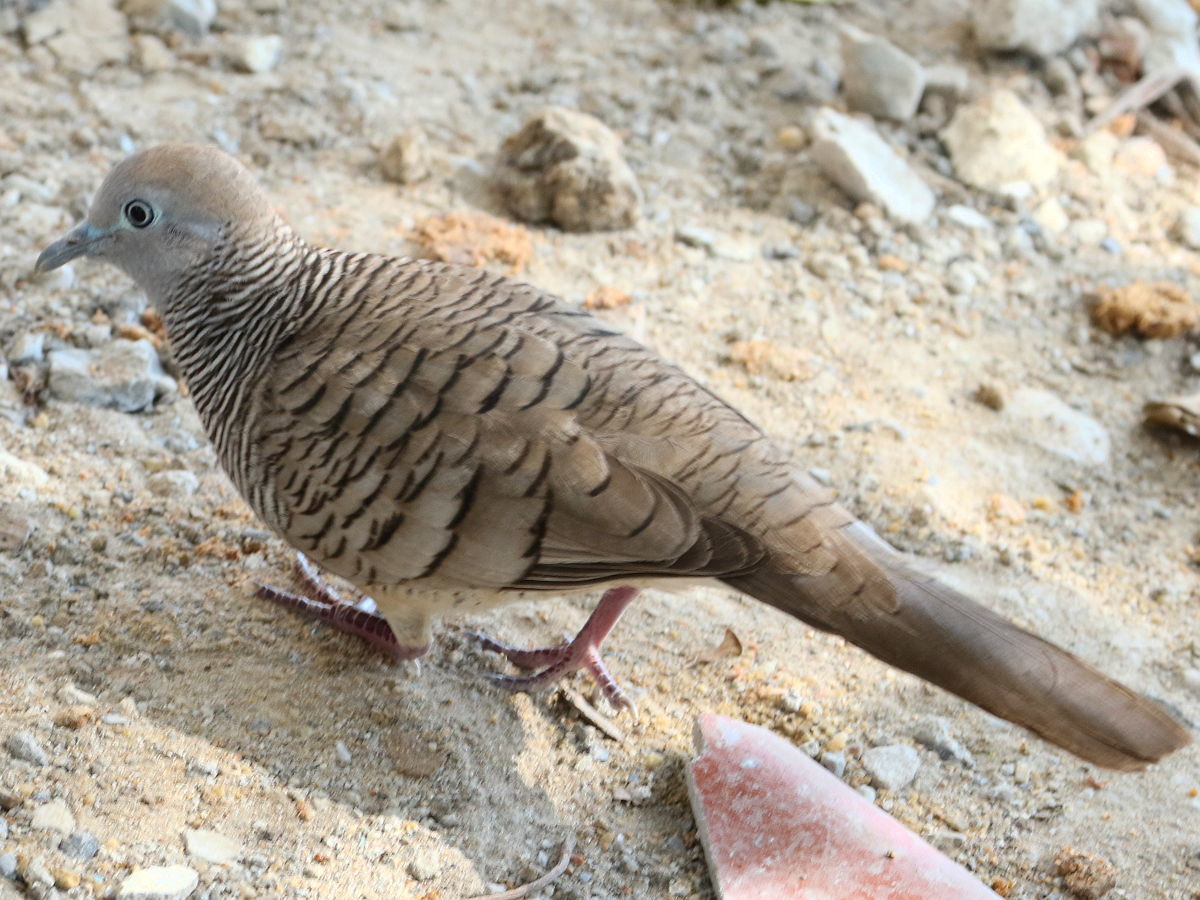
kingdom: Animalia
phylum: Chordata
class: Aves
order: Columbiformes
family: Columbidae
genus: Geopelia
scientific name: Geopelia striata
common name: Zebra dove
